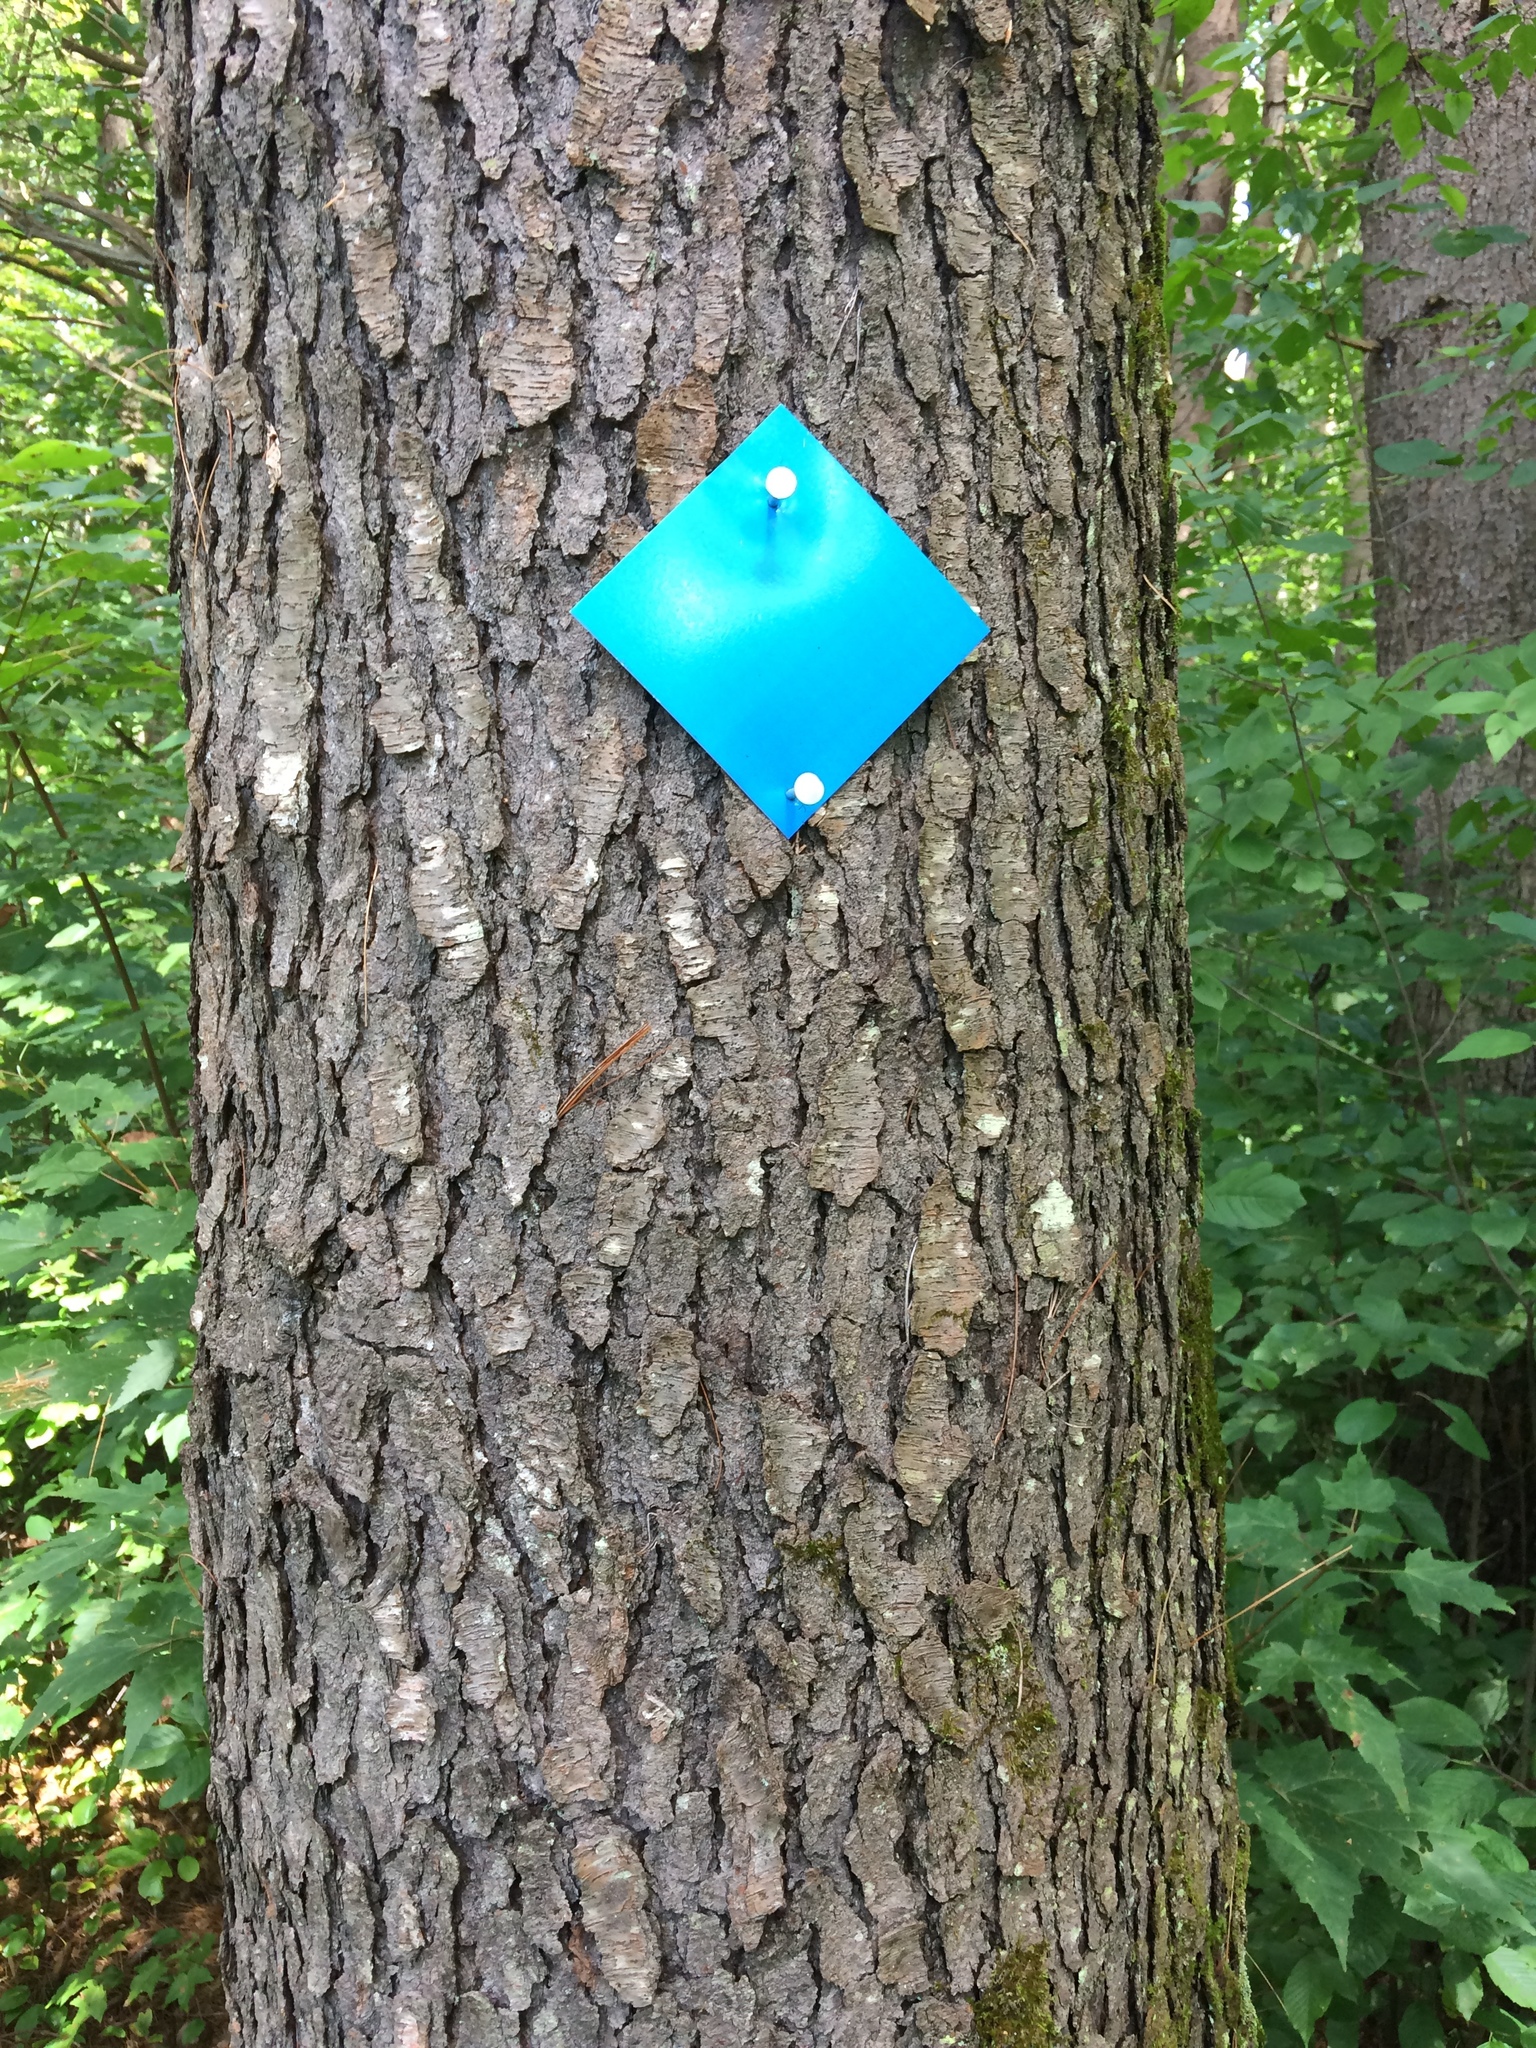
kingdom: Plantae
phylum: Tracheophyta
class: Magnoliopsida
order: Rosales
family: Rosaceae
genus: Prunus
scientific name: Prunus serotina
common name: Black cherry
